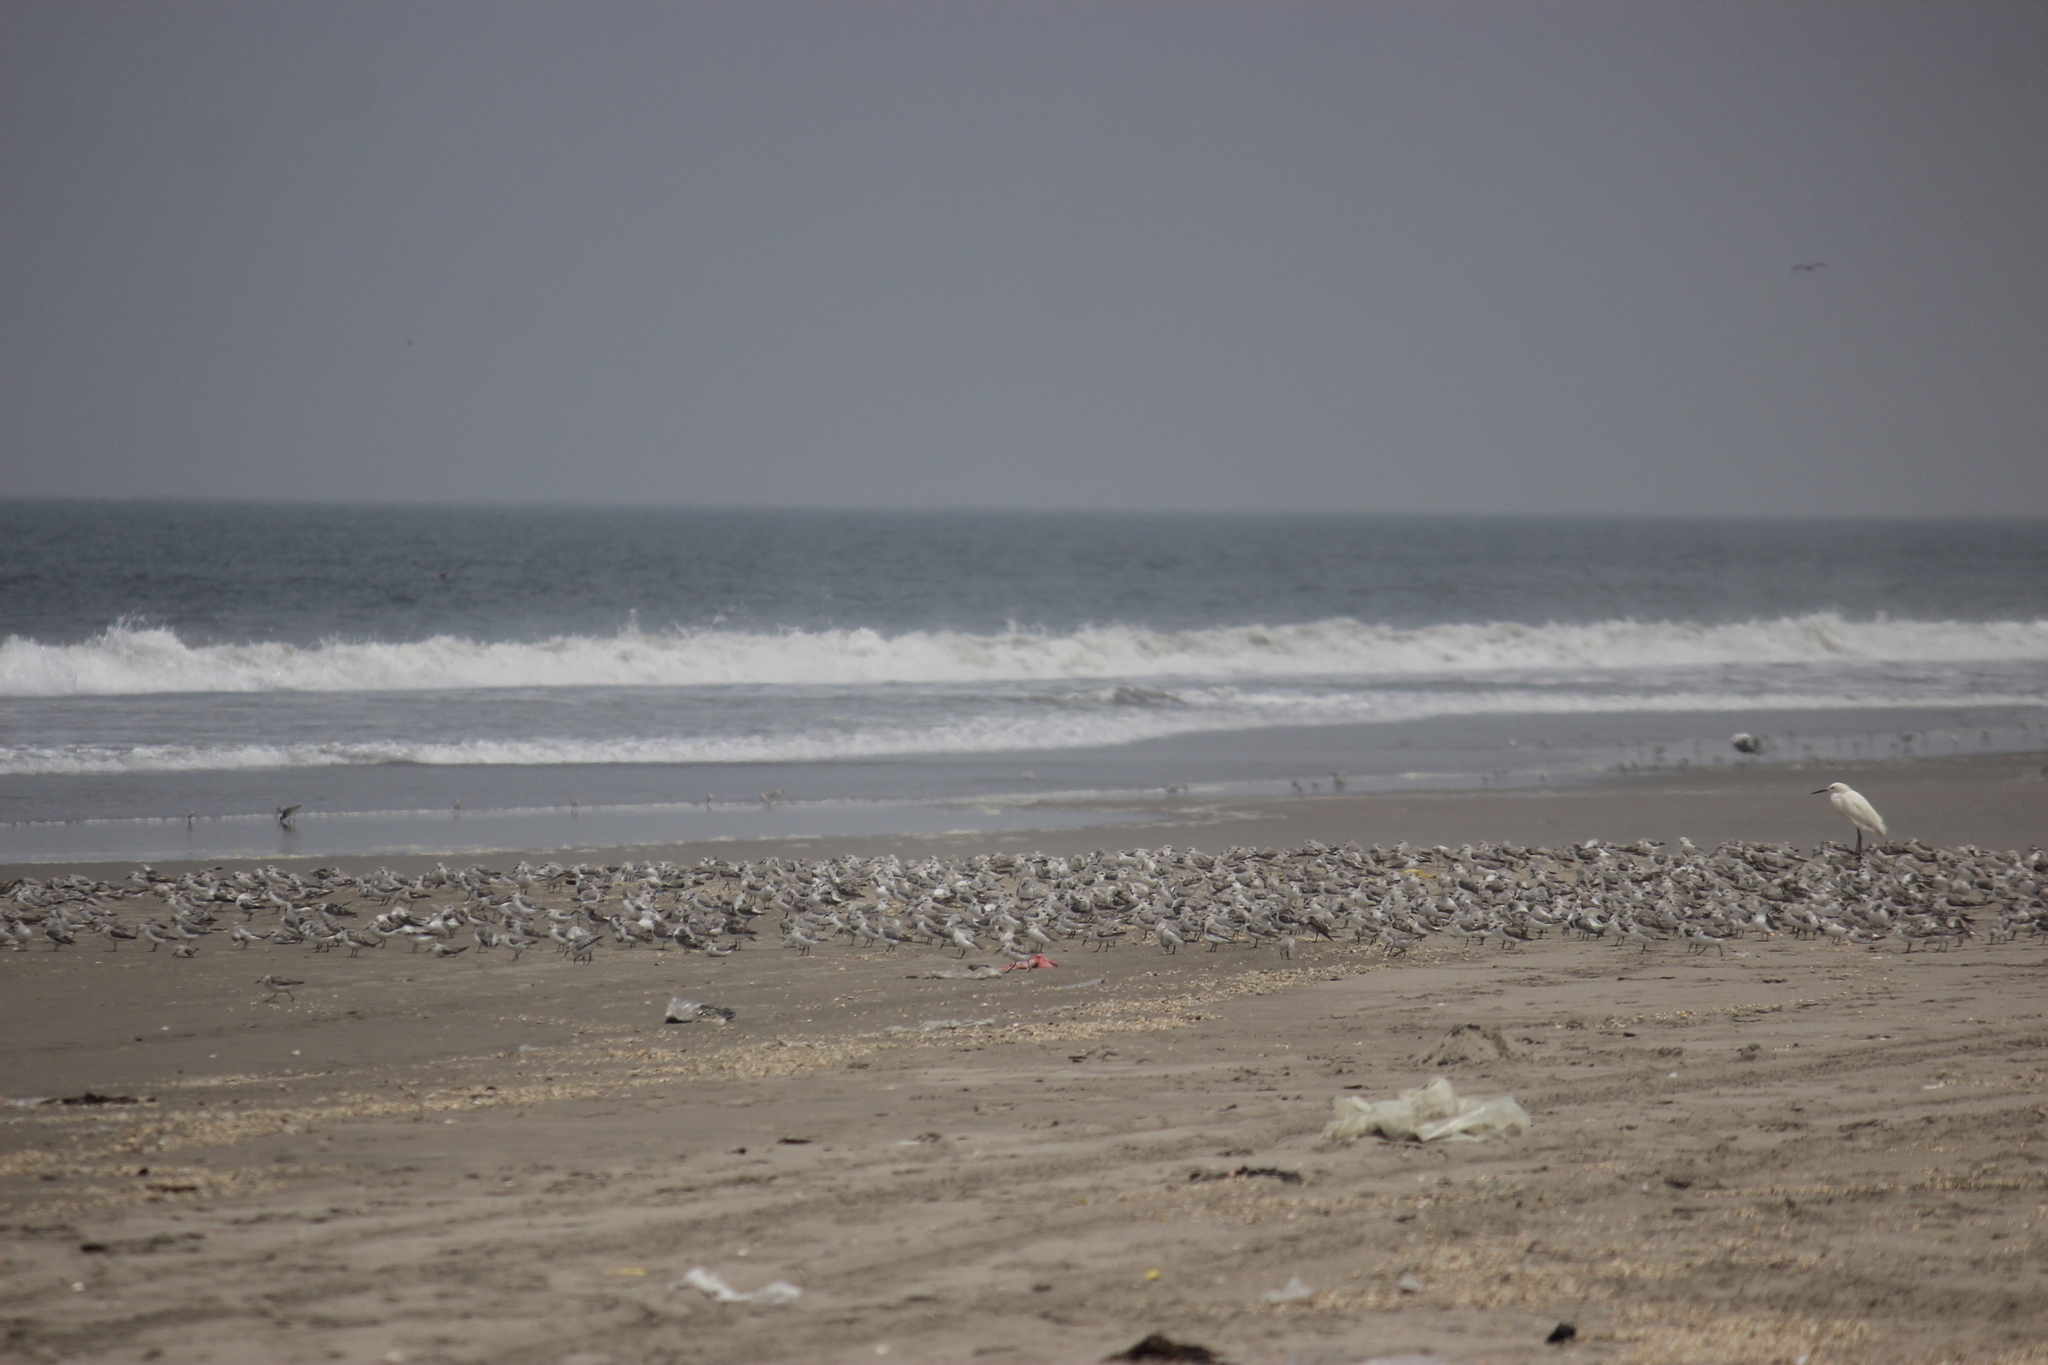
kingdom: Animalia
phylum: Chordata
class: Aves
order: Charadriiformes
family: Scolopacidae
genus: Calidris
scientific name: Calidris alba
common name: Sanderling
